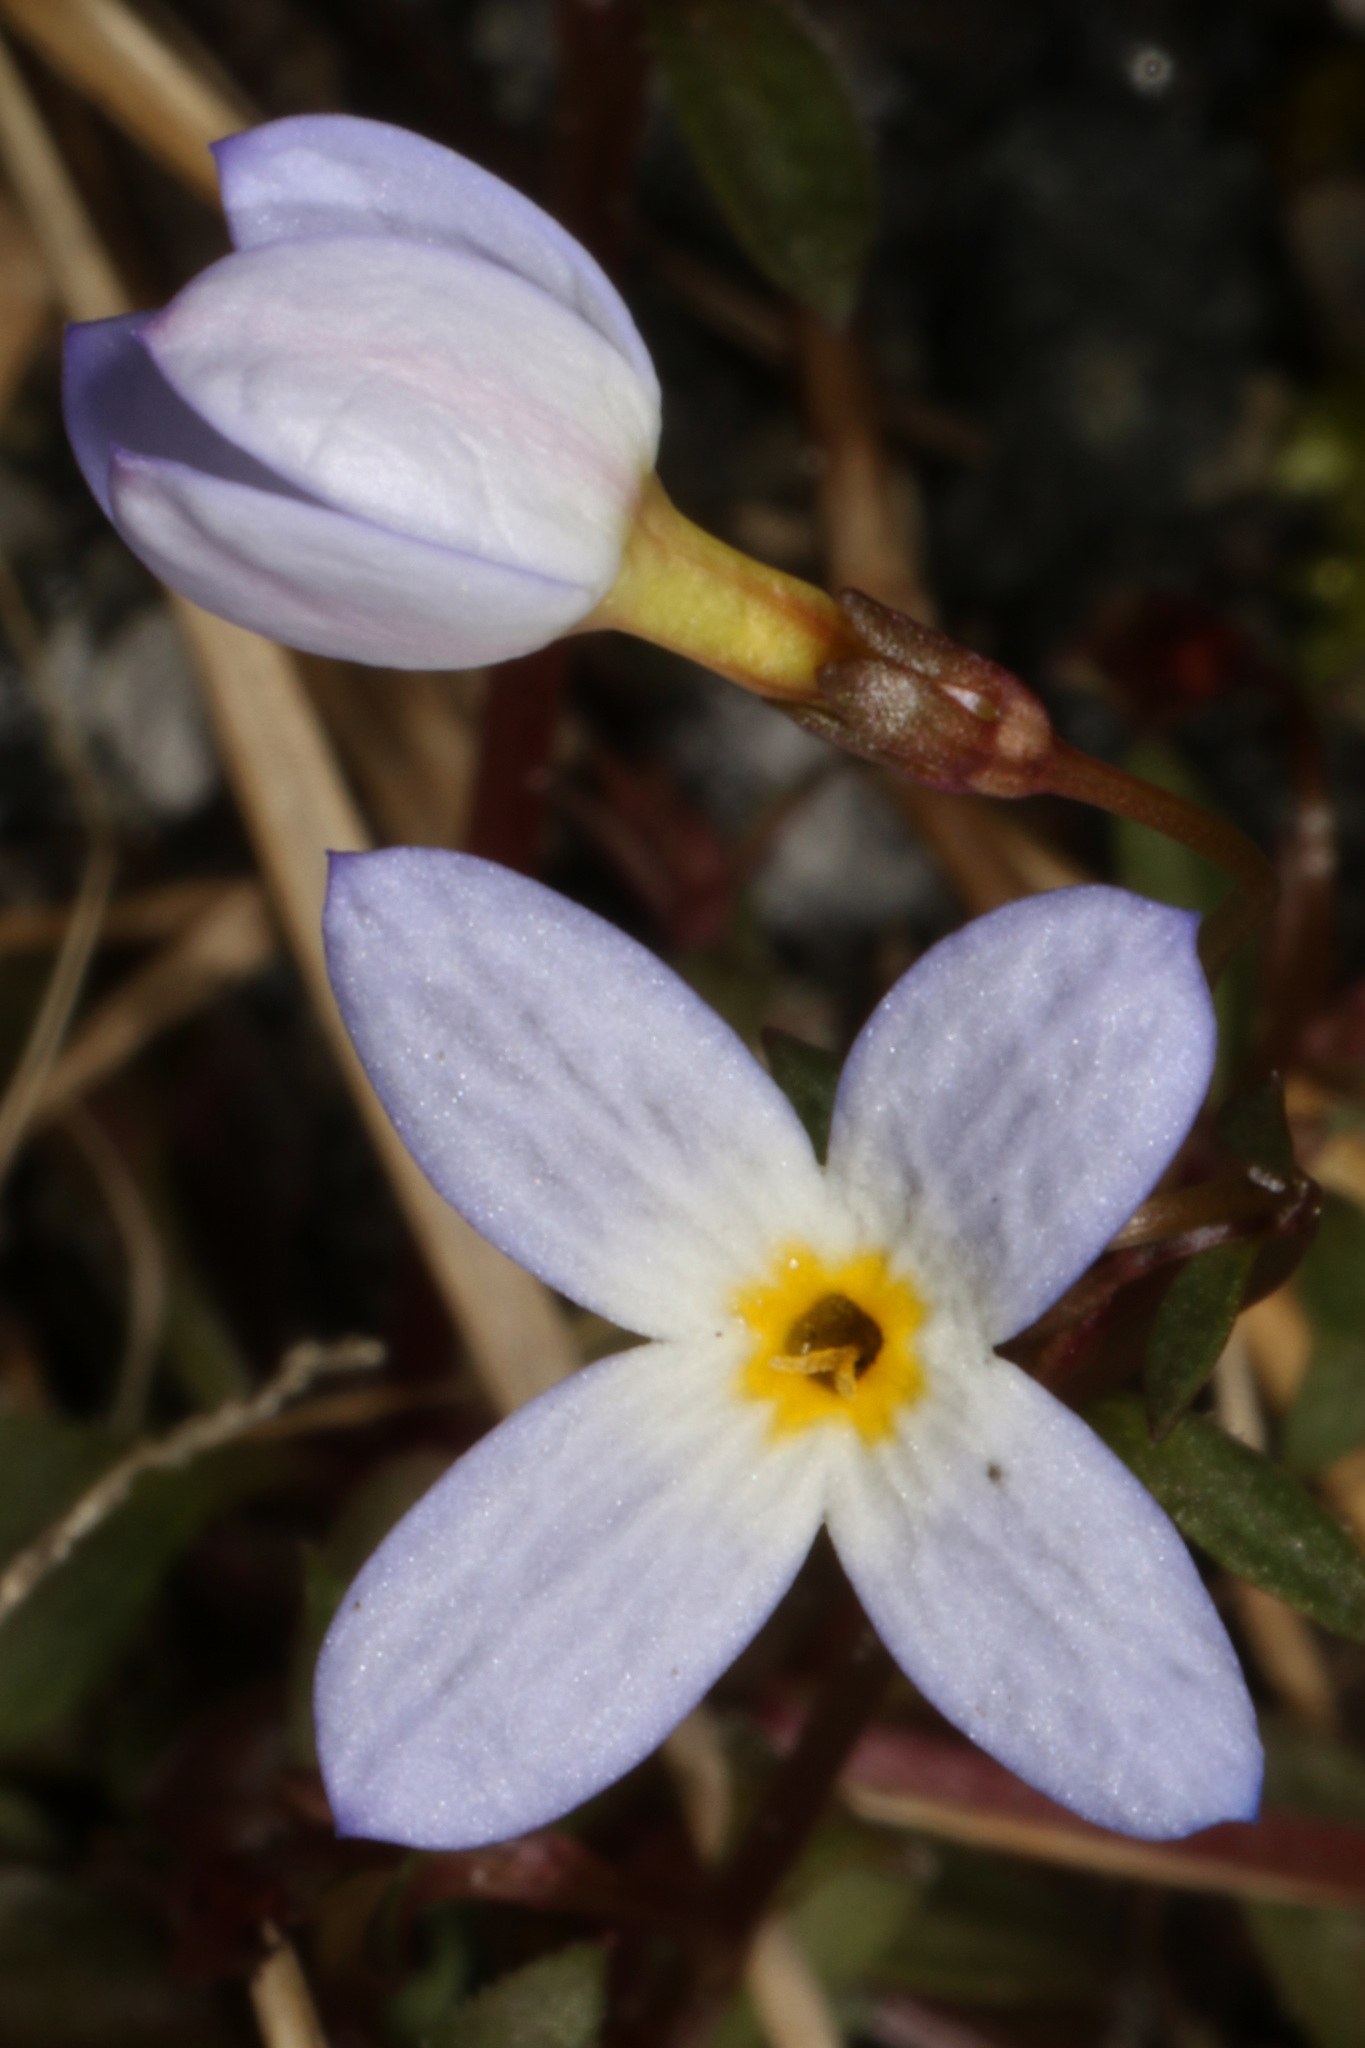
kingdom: Plantae
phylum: Tracheophyta
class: Magnoliopsida
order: Gentianales
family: Rubiaceae
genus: Houstonia
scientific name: Houstonia caerulea
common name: Bluets
